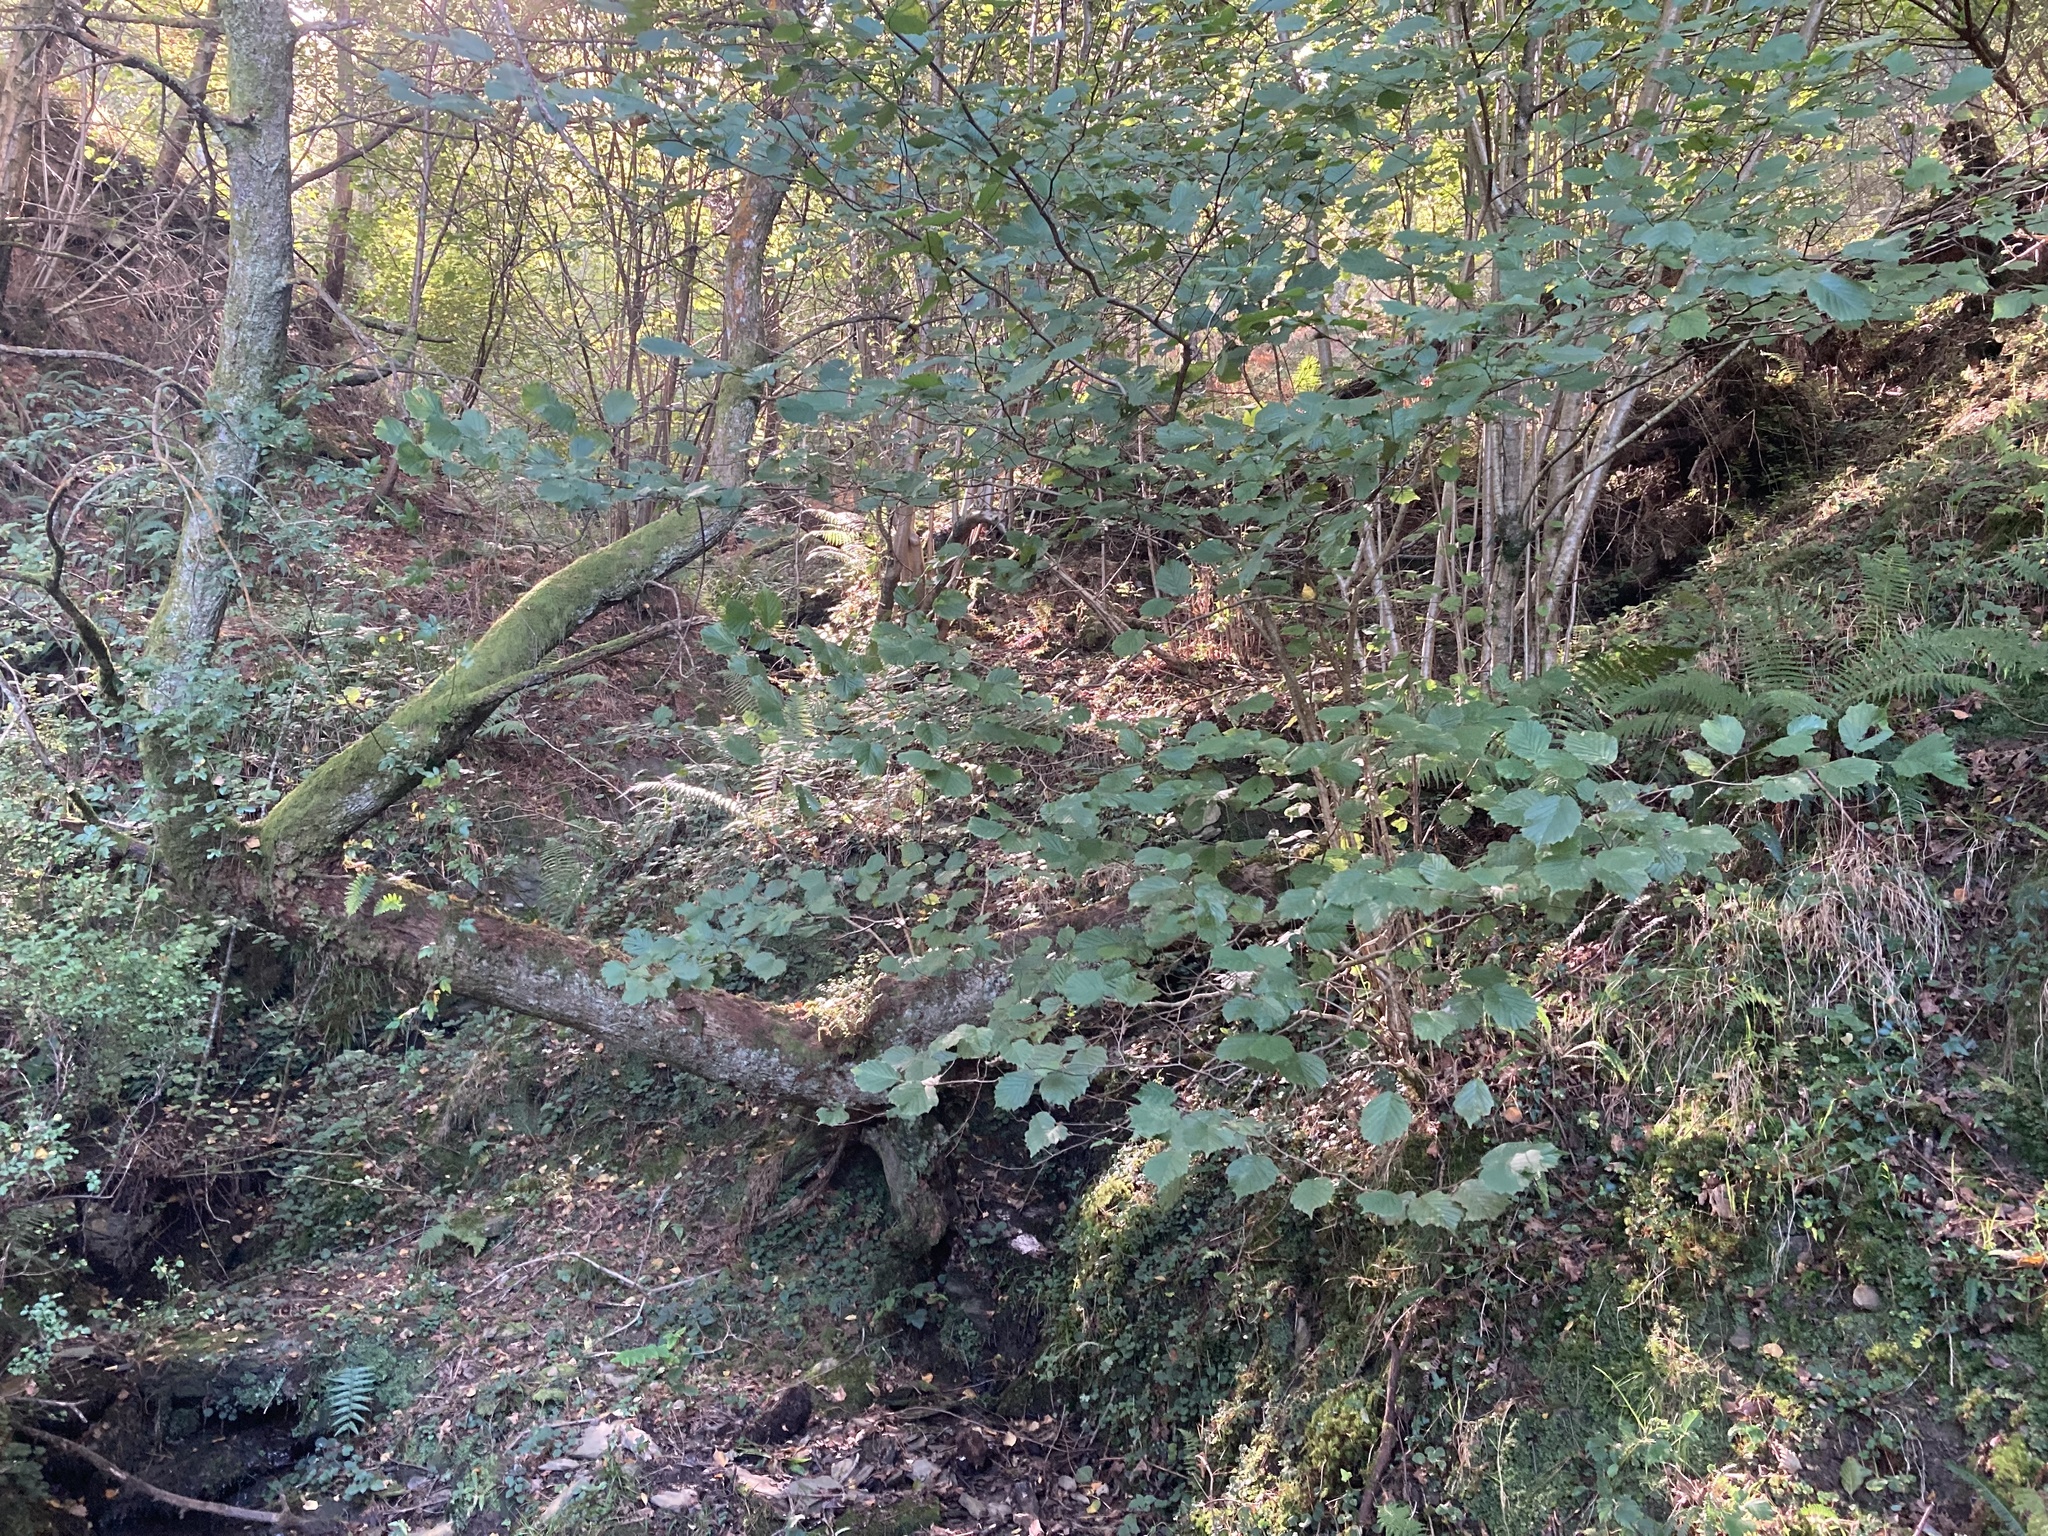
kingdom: Plantae
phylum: Tracheophyta
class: Magnoliopsida
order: Fagales
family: Betulaceae
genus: Corylus
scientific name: Corylus avellana
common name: European hazel
